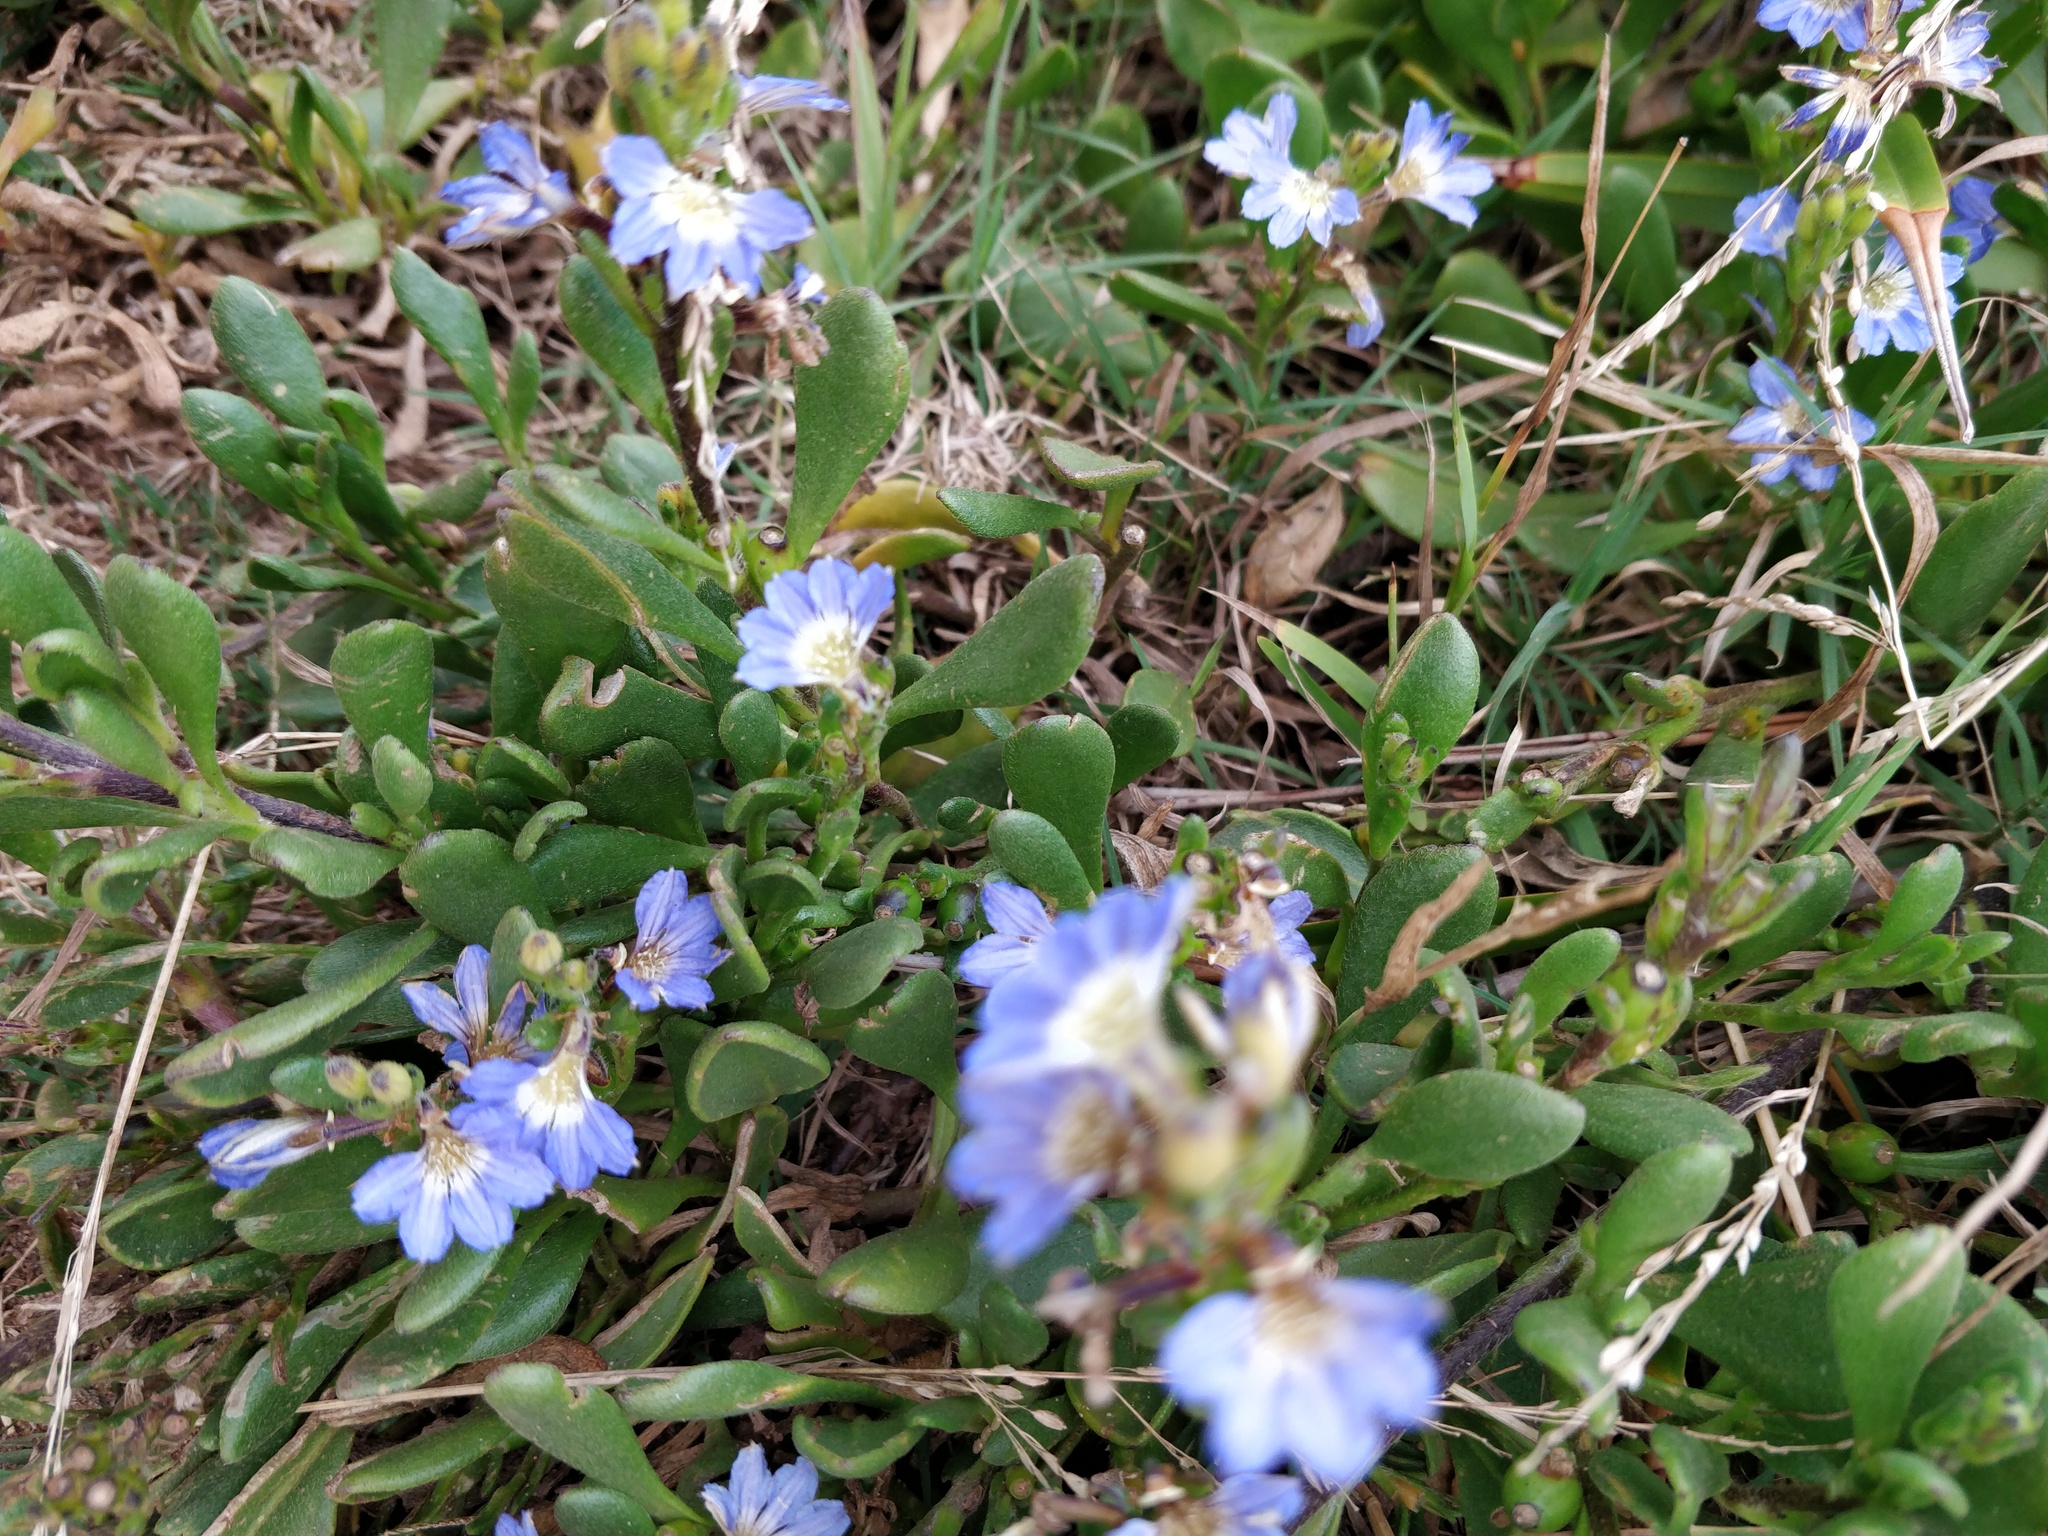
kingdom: Plantae
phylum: Tracheophyta
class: Magnoliopsida
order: Asterales
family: Goodeniaceae
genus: Scaevola
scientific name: Scaevola calendulacea
